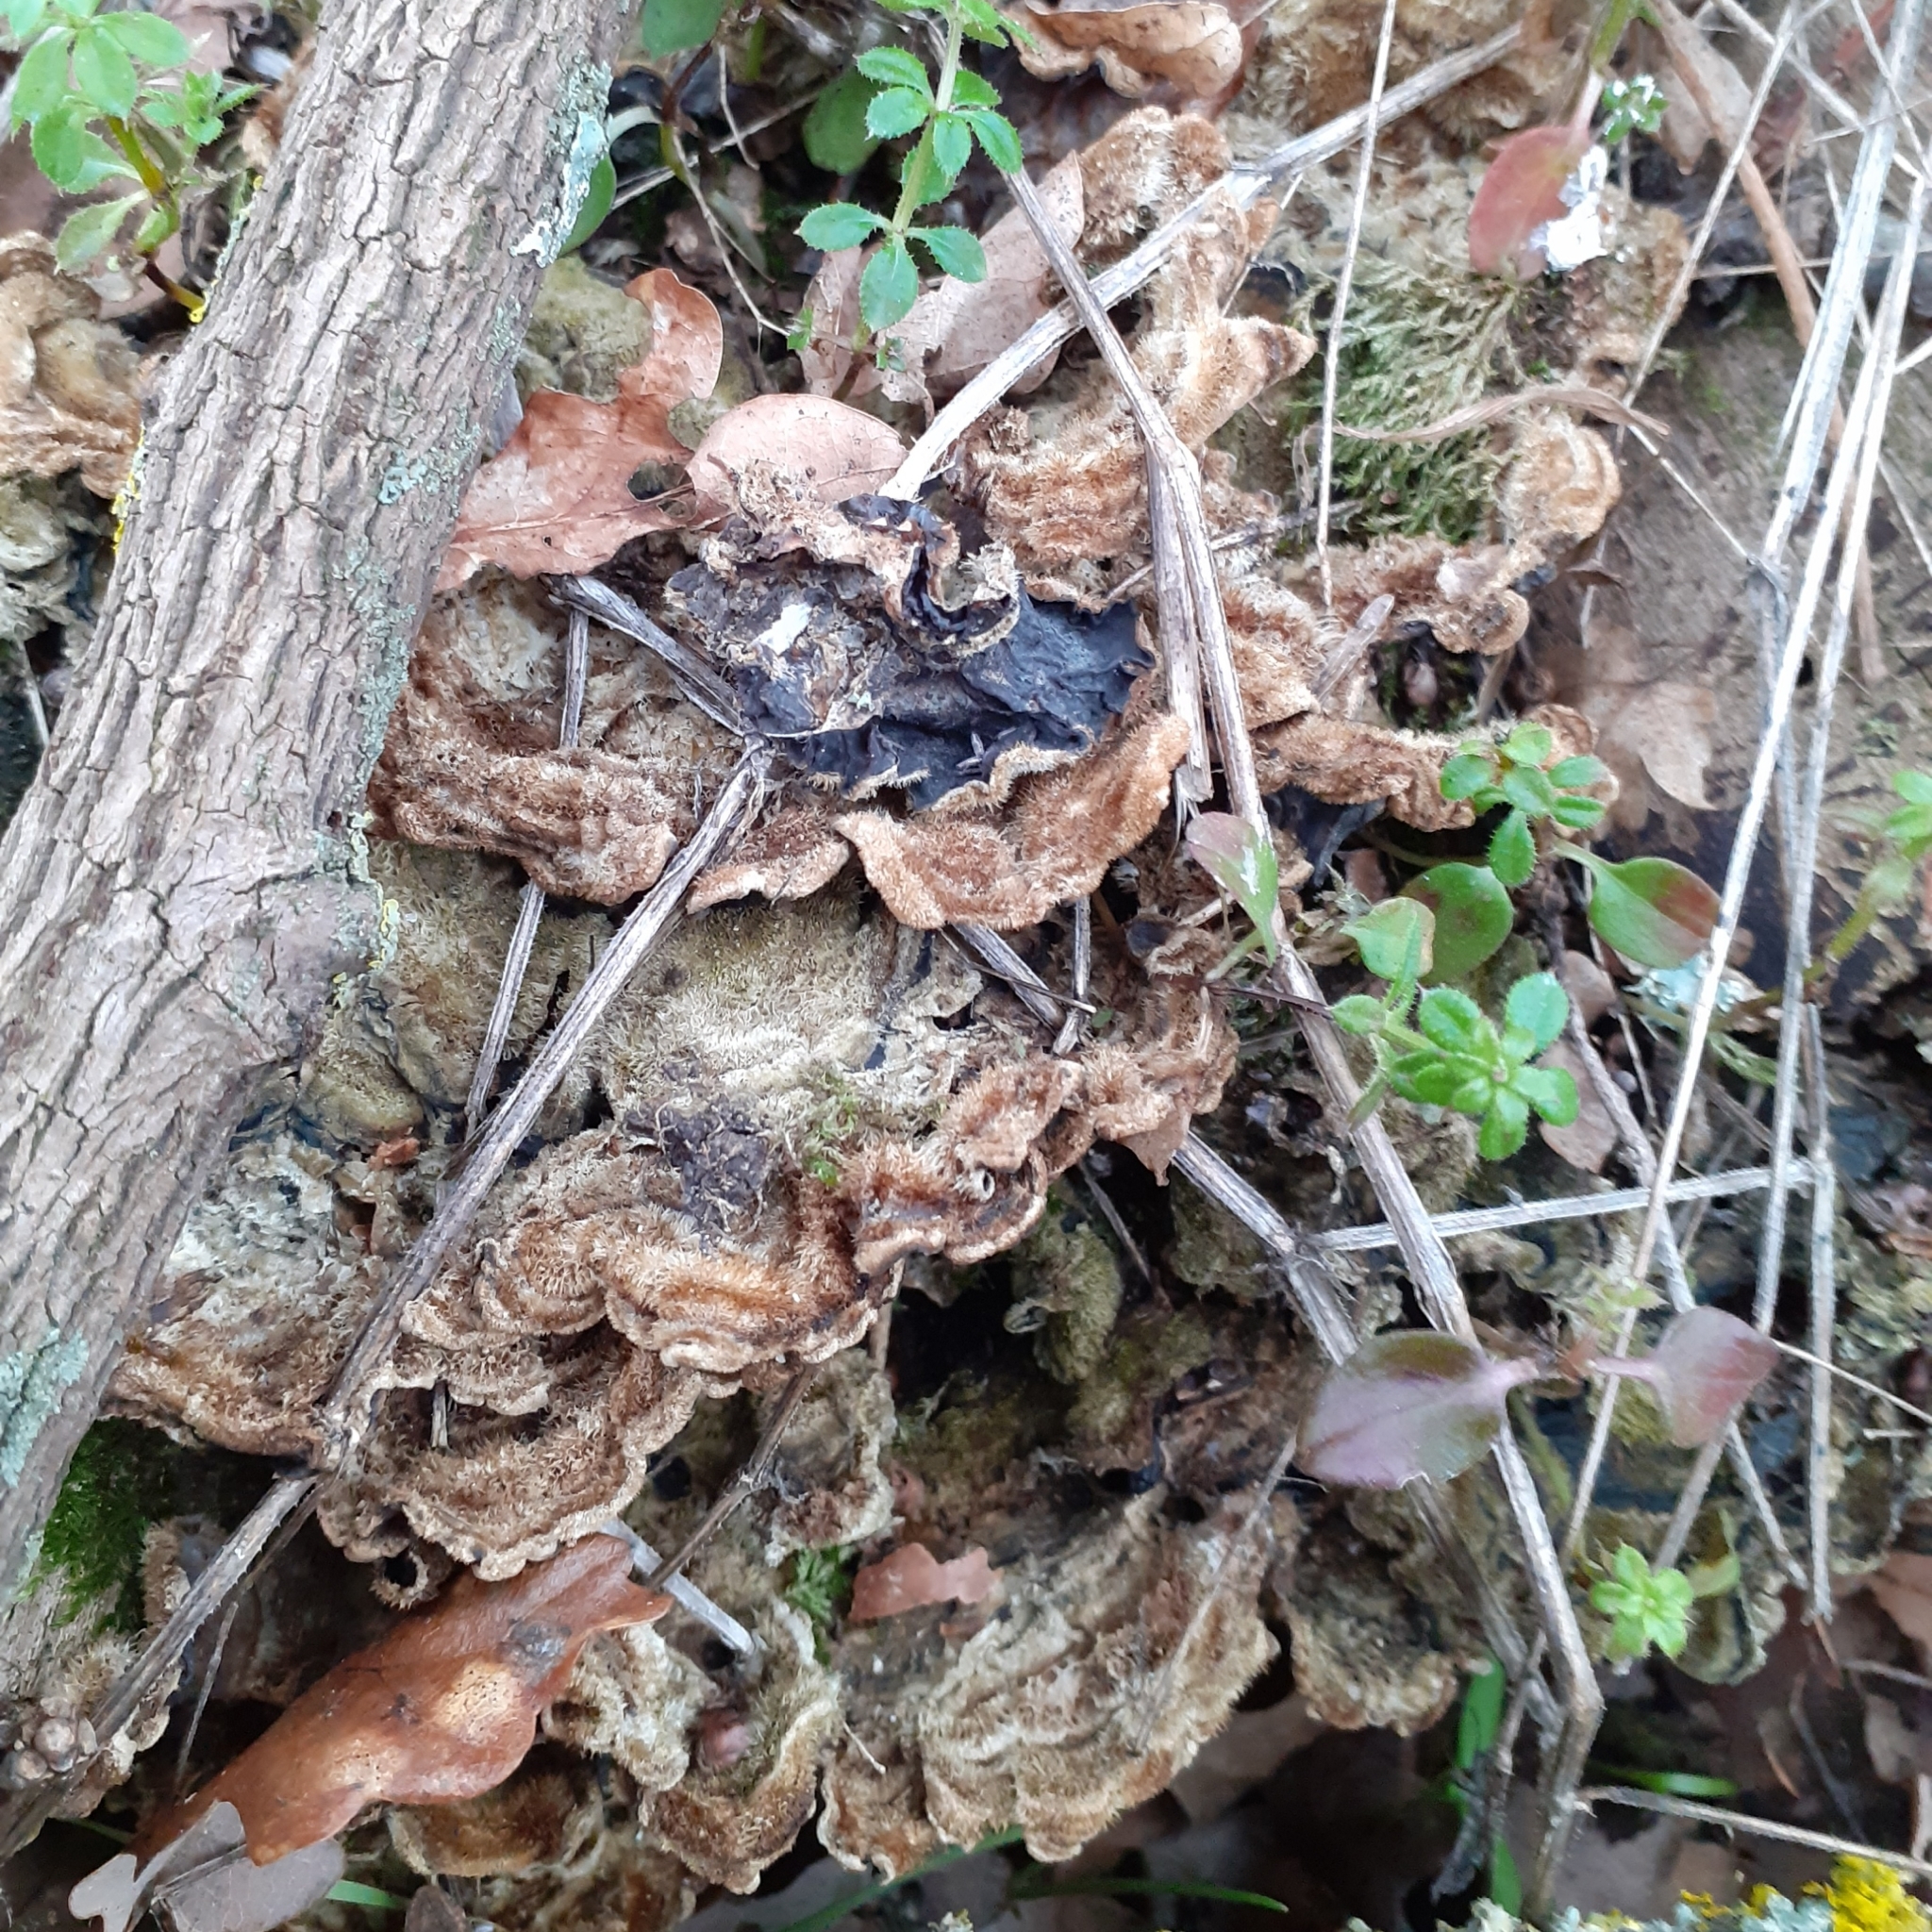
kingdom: Fungi
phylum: Basidiomycota
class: Agaricomycetes
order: Auriculariales
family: Auriculariaceae
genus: Auricularia
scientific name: Auricularia mesenterica
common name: Tripe fungus
